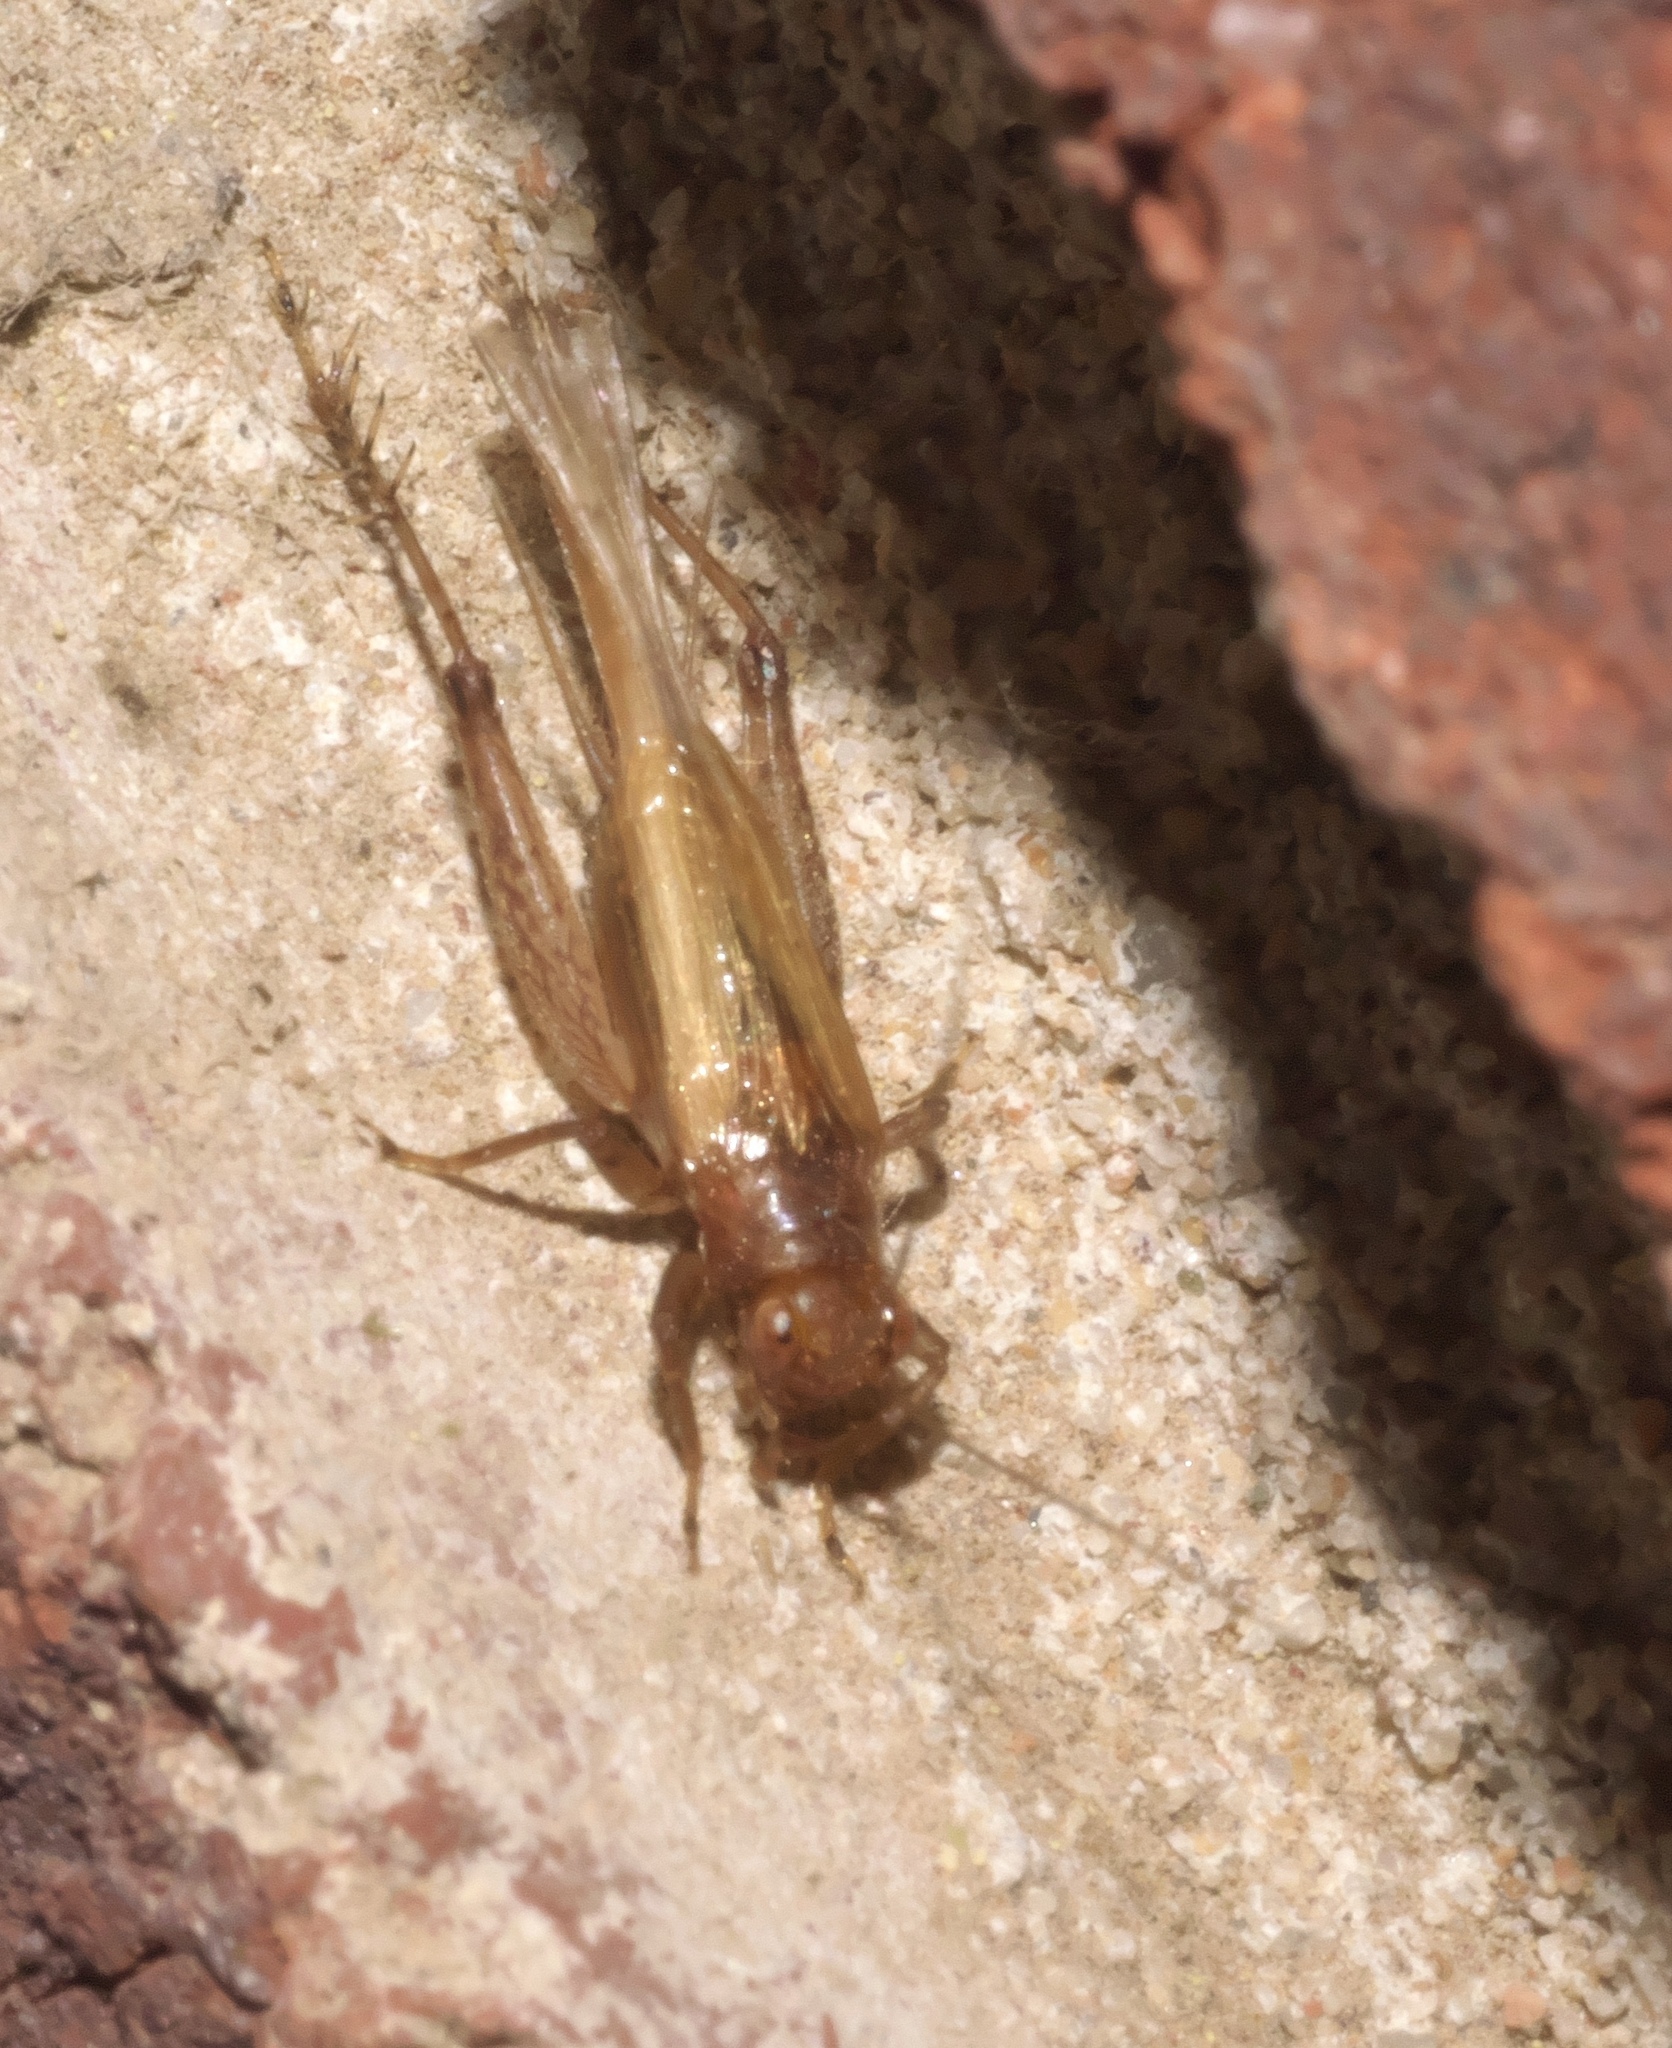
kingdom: Animalia
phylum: Arthropoda
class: Insecta
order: Orthoptera
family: Trigonidiidae
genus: Anaxipha
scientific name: Anaxipha vernalis
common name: Spring trig
